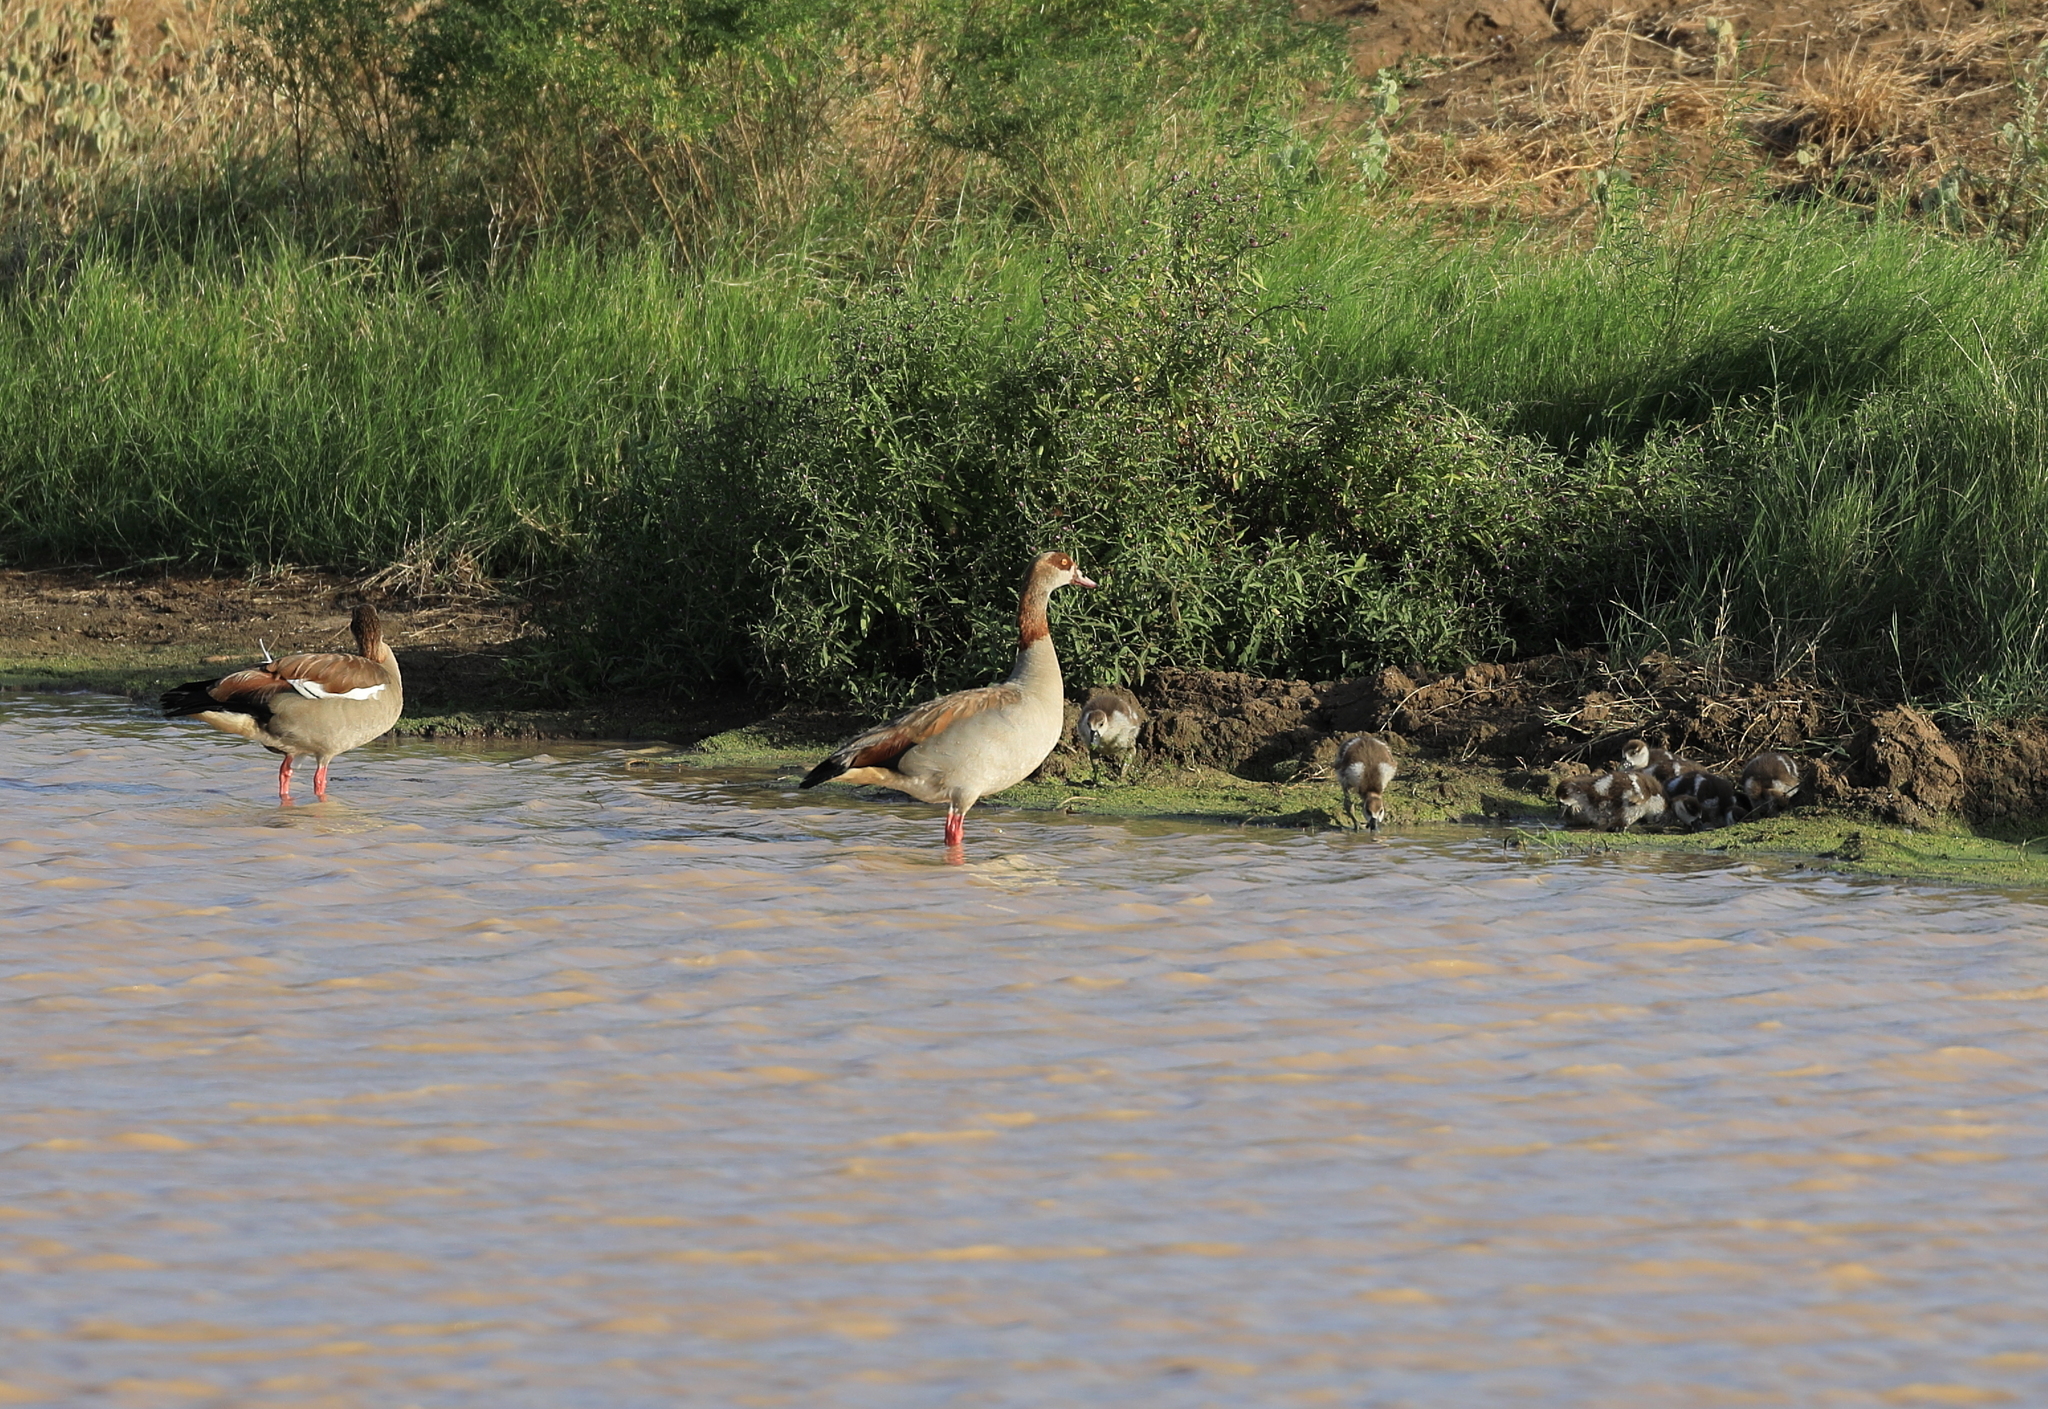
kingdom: Animalia
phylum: Chordata
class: Aves
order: Anseriformes
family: Anatidae
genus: Alopochen
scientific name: Alopochen aegyptiaca
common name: Egyptian goose
